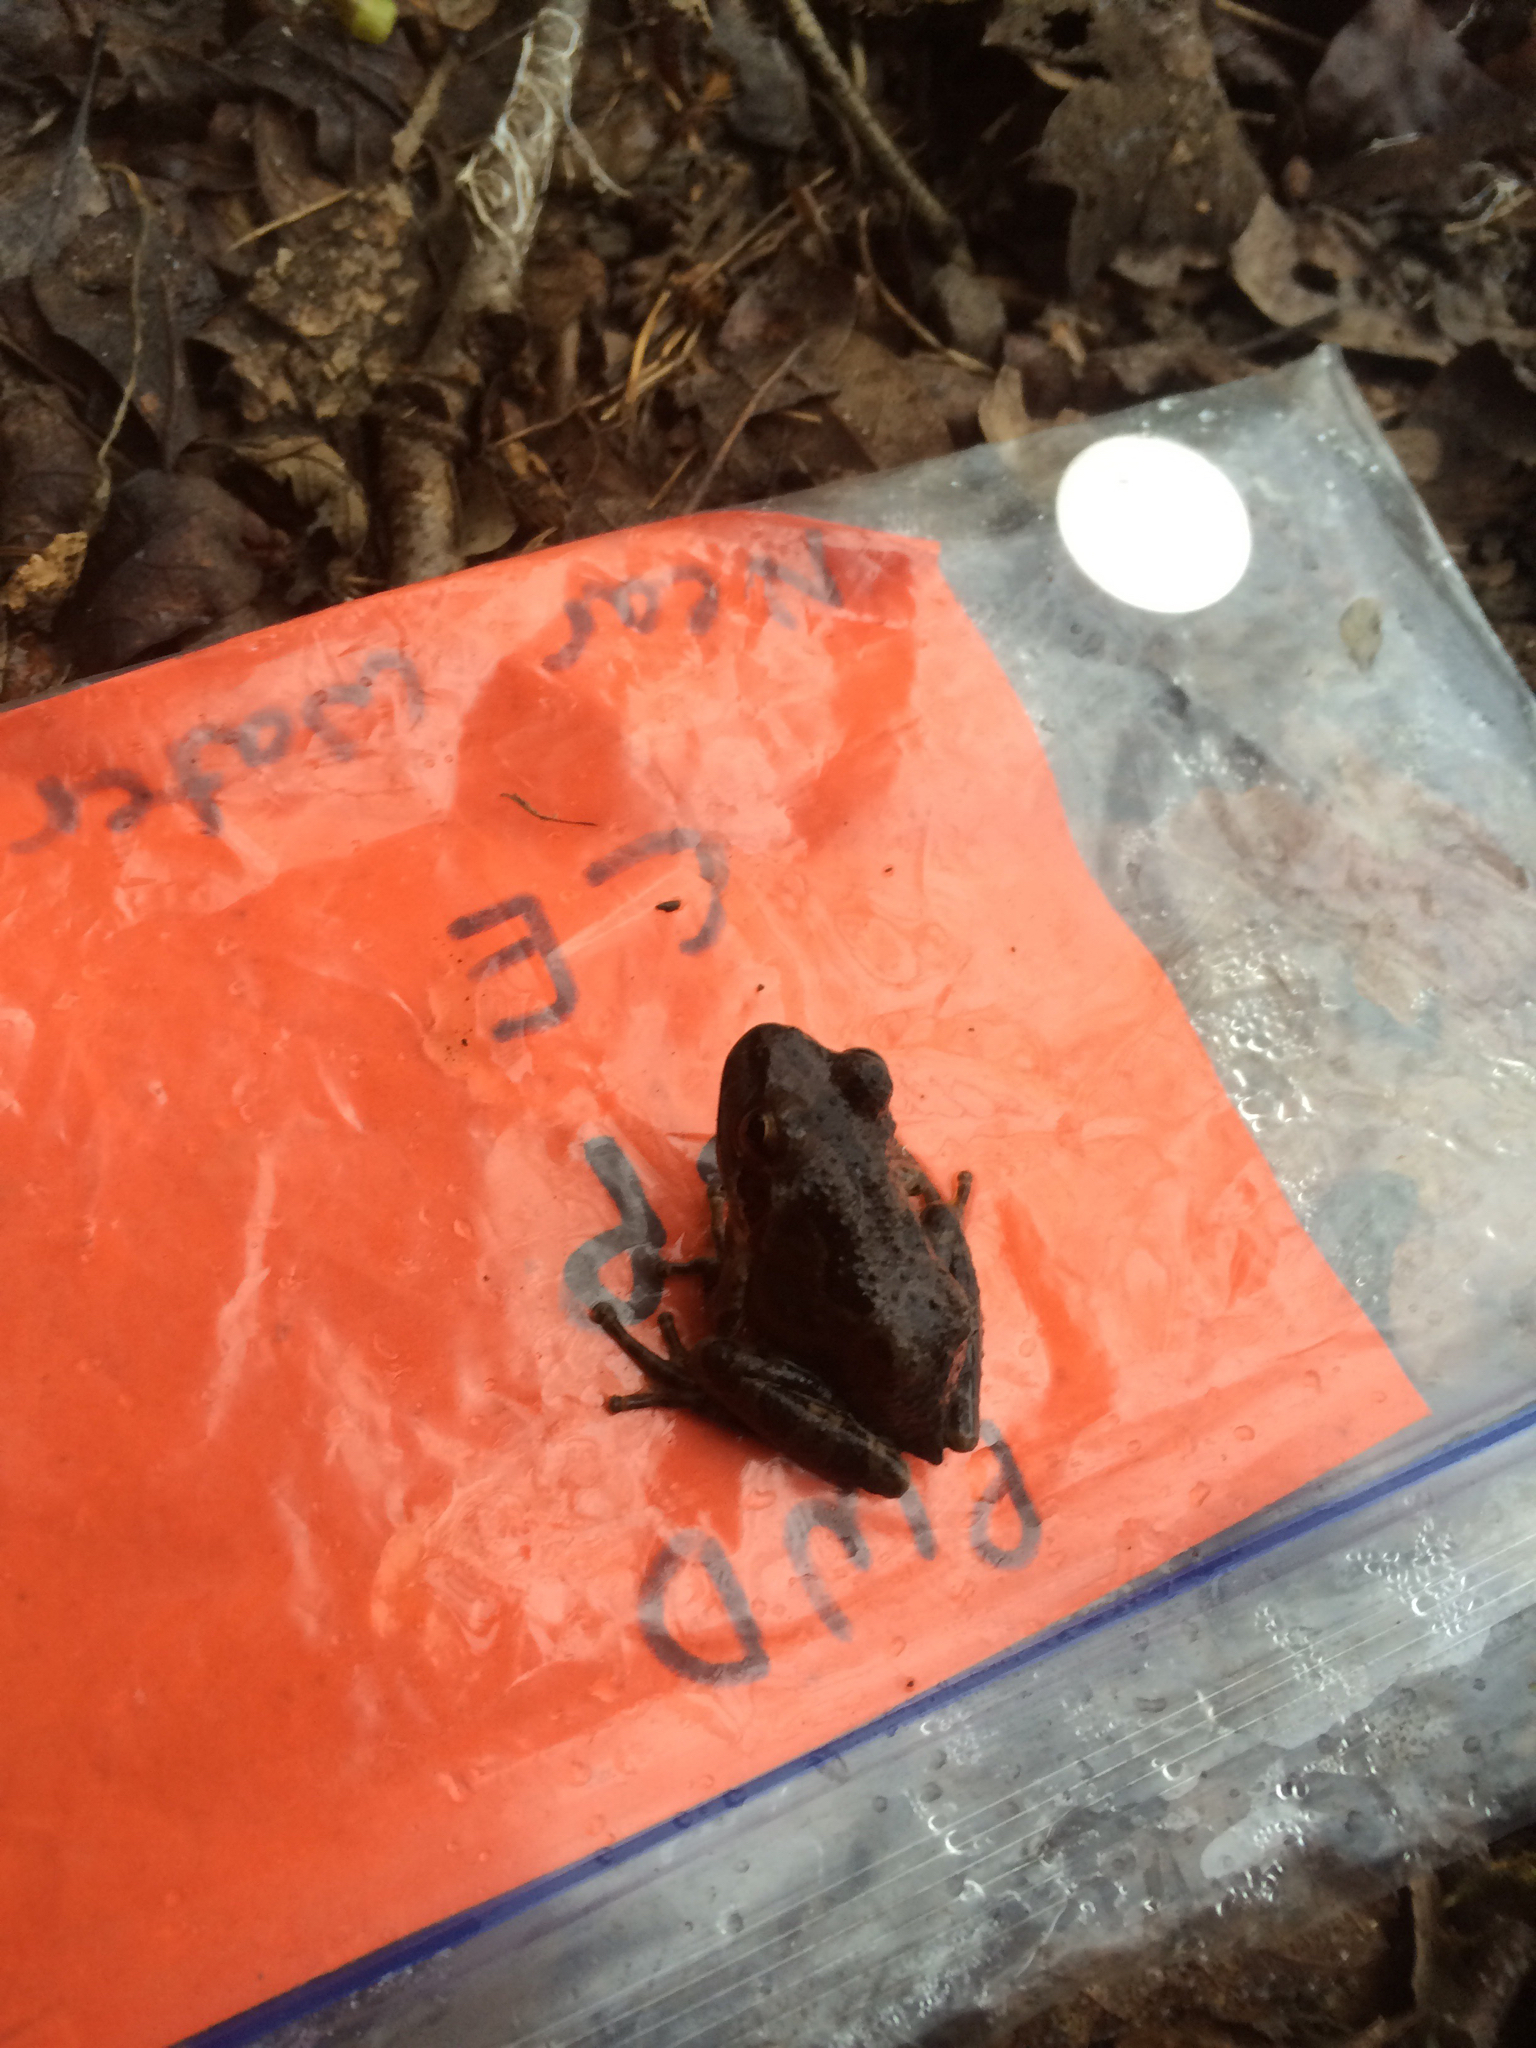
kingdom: Animalia
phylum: Chordata
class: Amphibia
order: Anura
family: Hylidae
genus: Pseudacris
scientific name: Pseudacris regilla
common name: Pacific chorus frog
